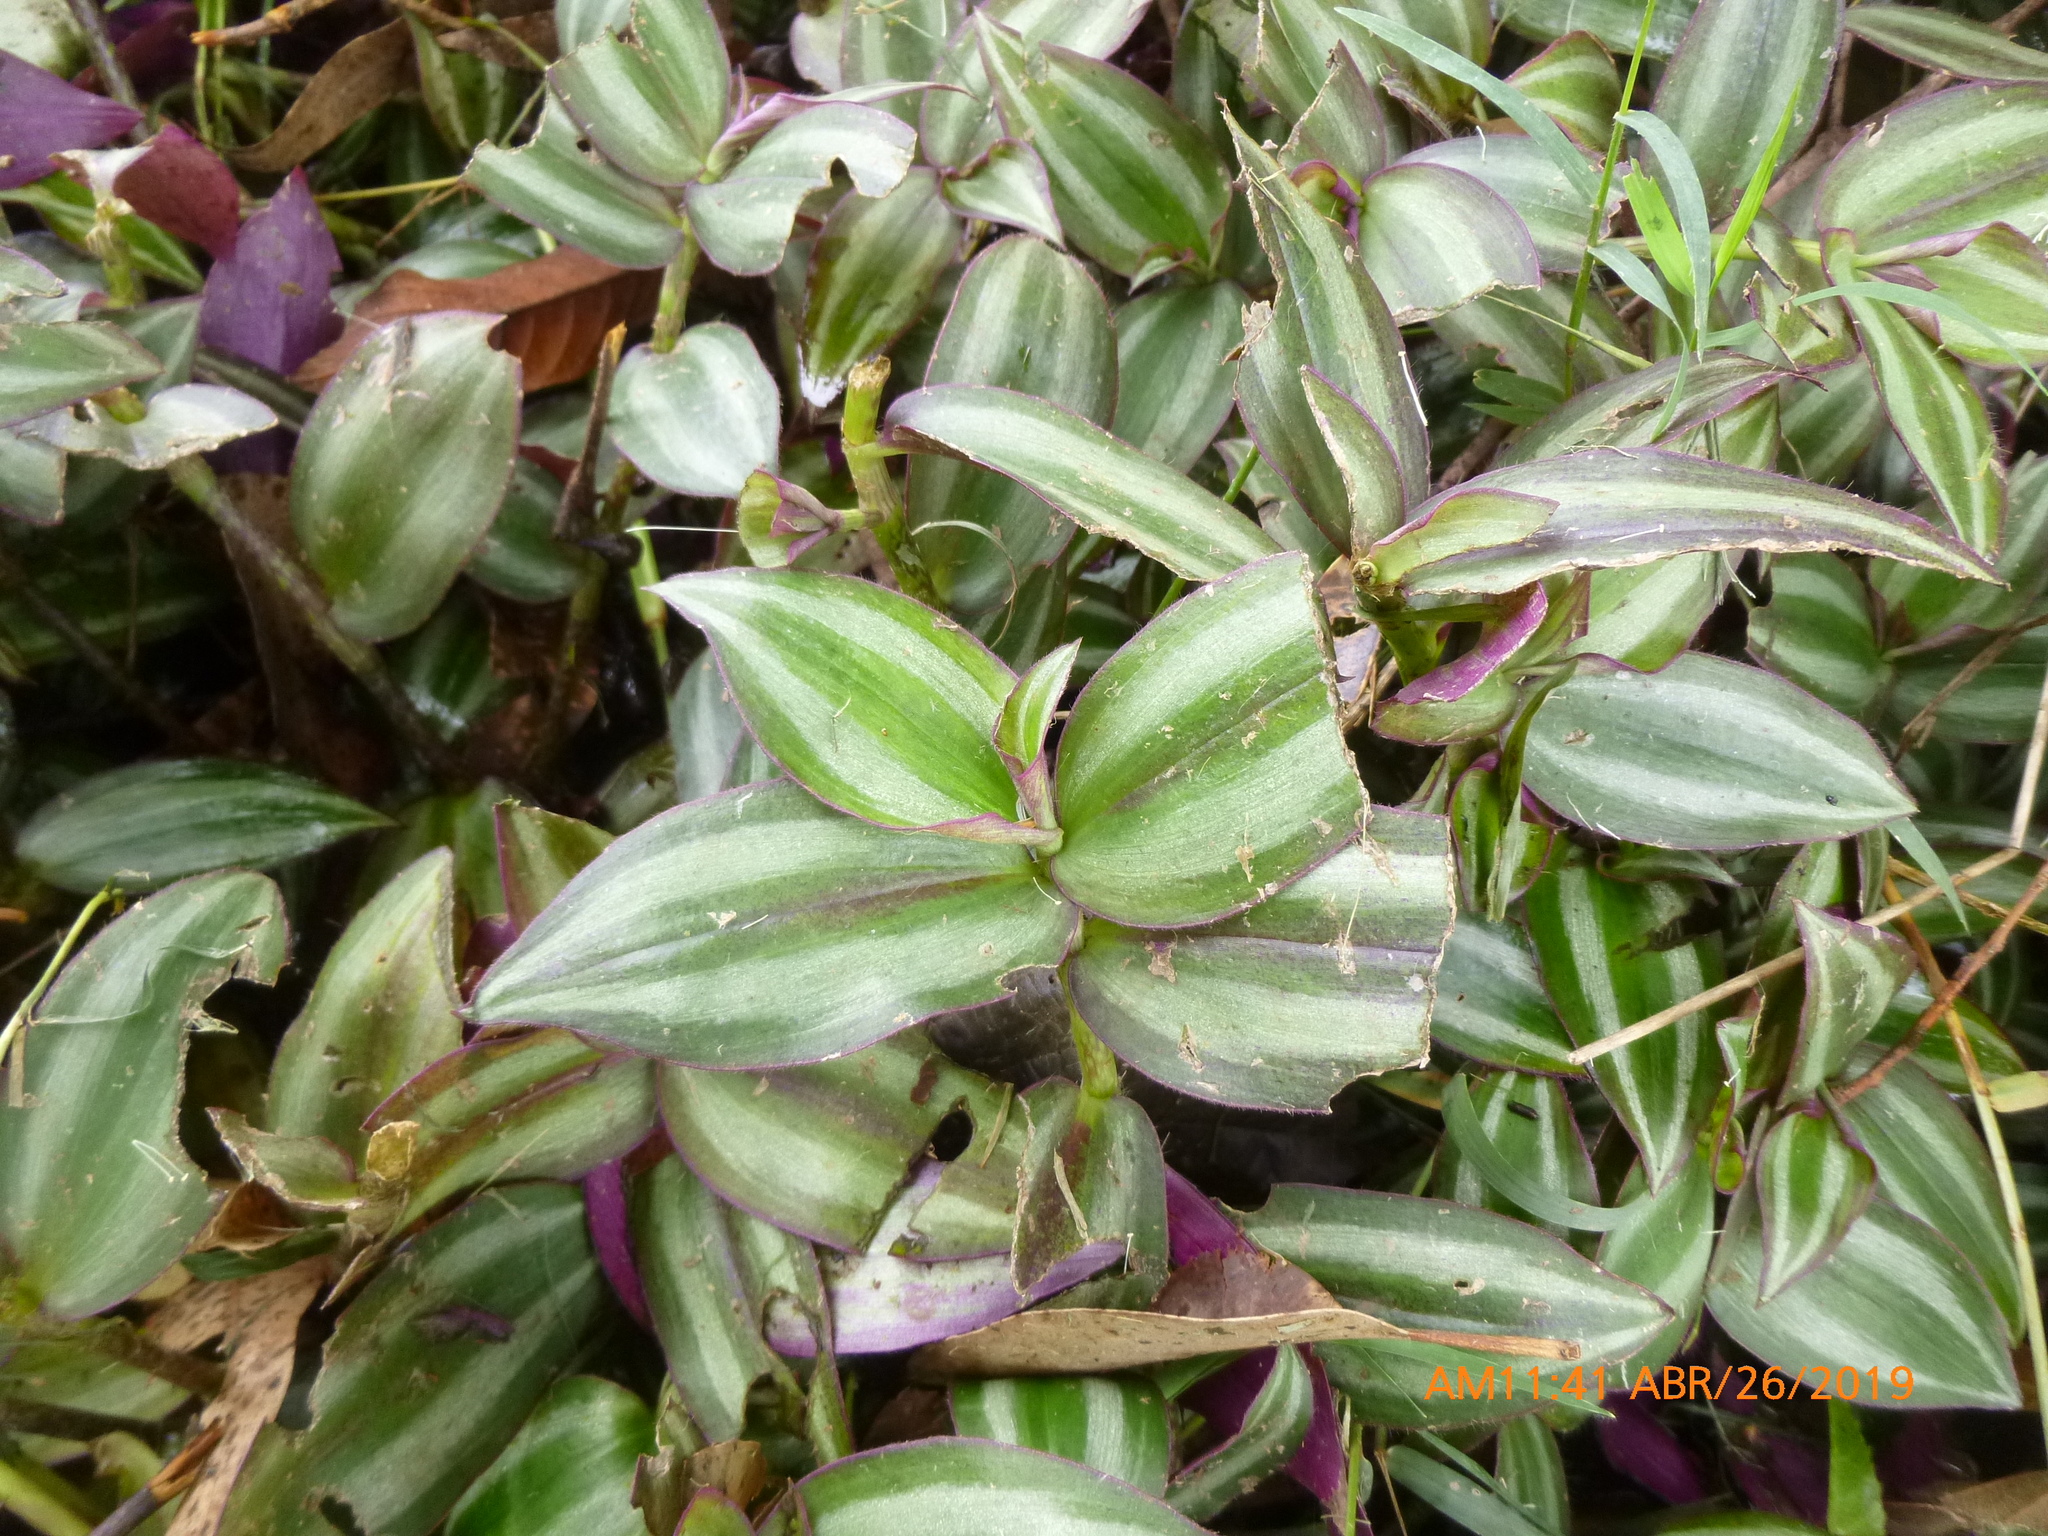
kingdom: Plantae
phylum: Tracheophyta
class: Liliopsida
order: Commelinales
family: Commelinaceae
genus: Tradescantia
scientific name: Tradescantia zebrina
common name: Inchplant
